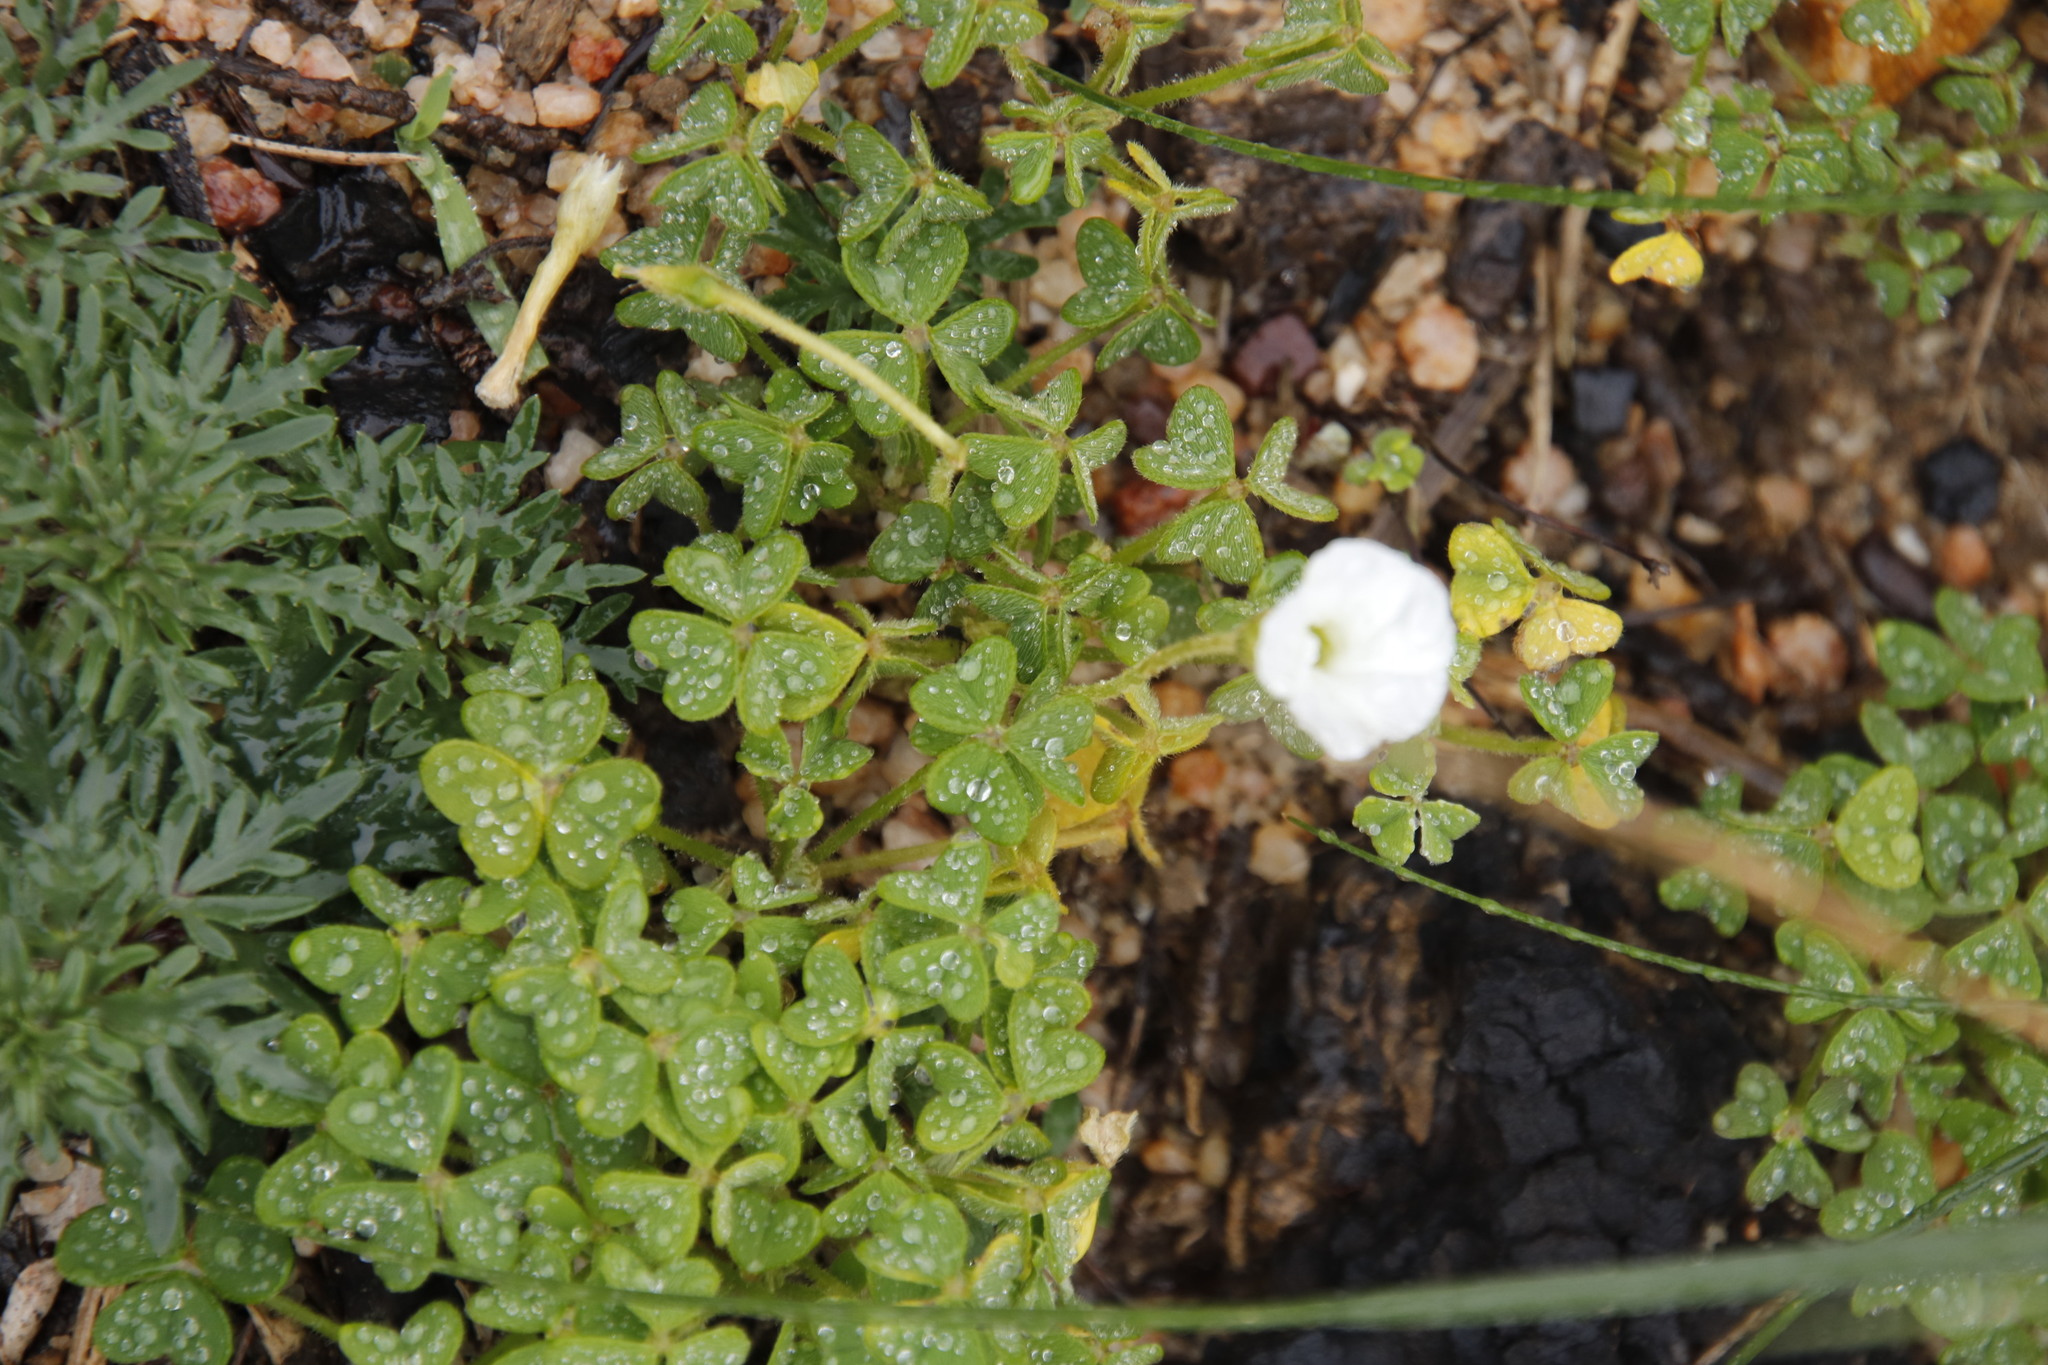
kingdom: Plantae
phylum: Tracheophyta
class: Magnoliopsida
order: Oxalidales
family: Oxalidaceae
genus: Oxalis
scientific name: Oxalis lanata
